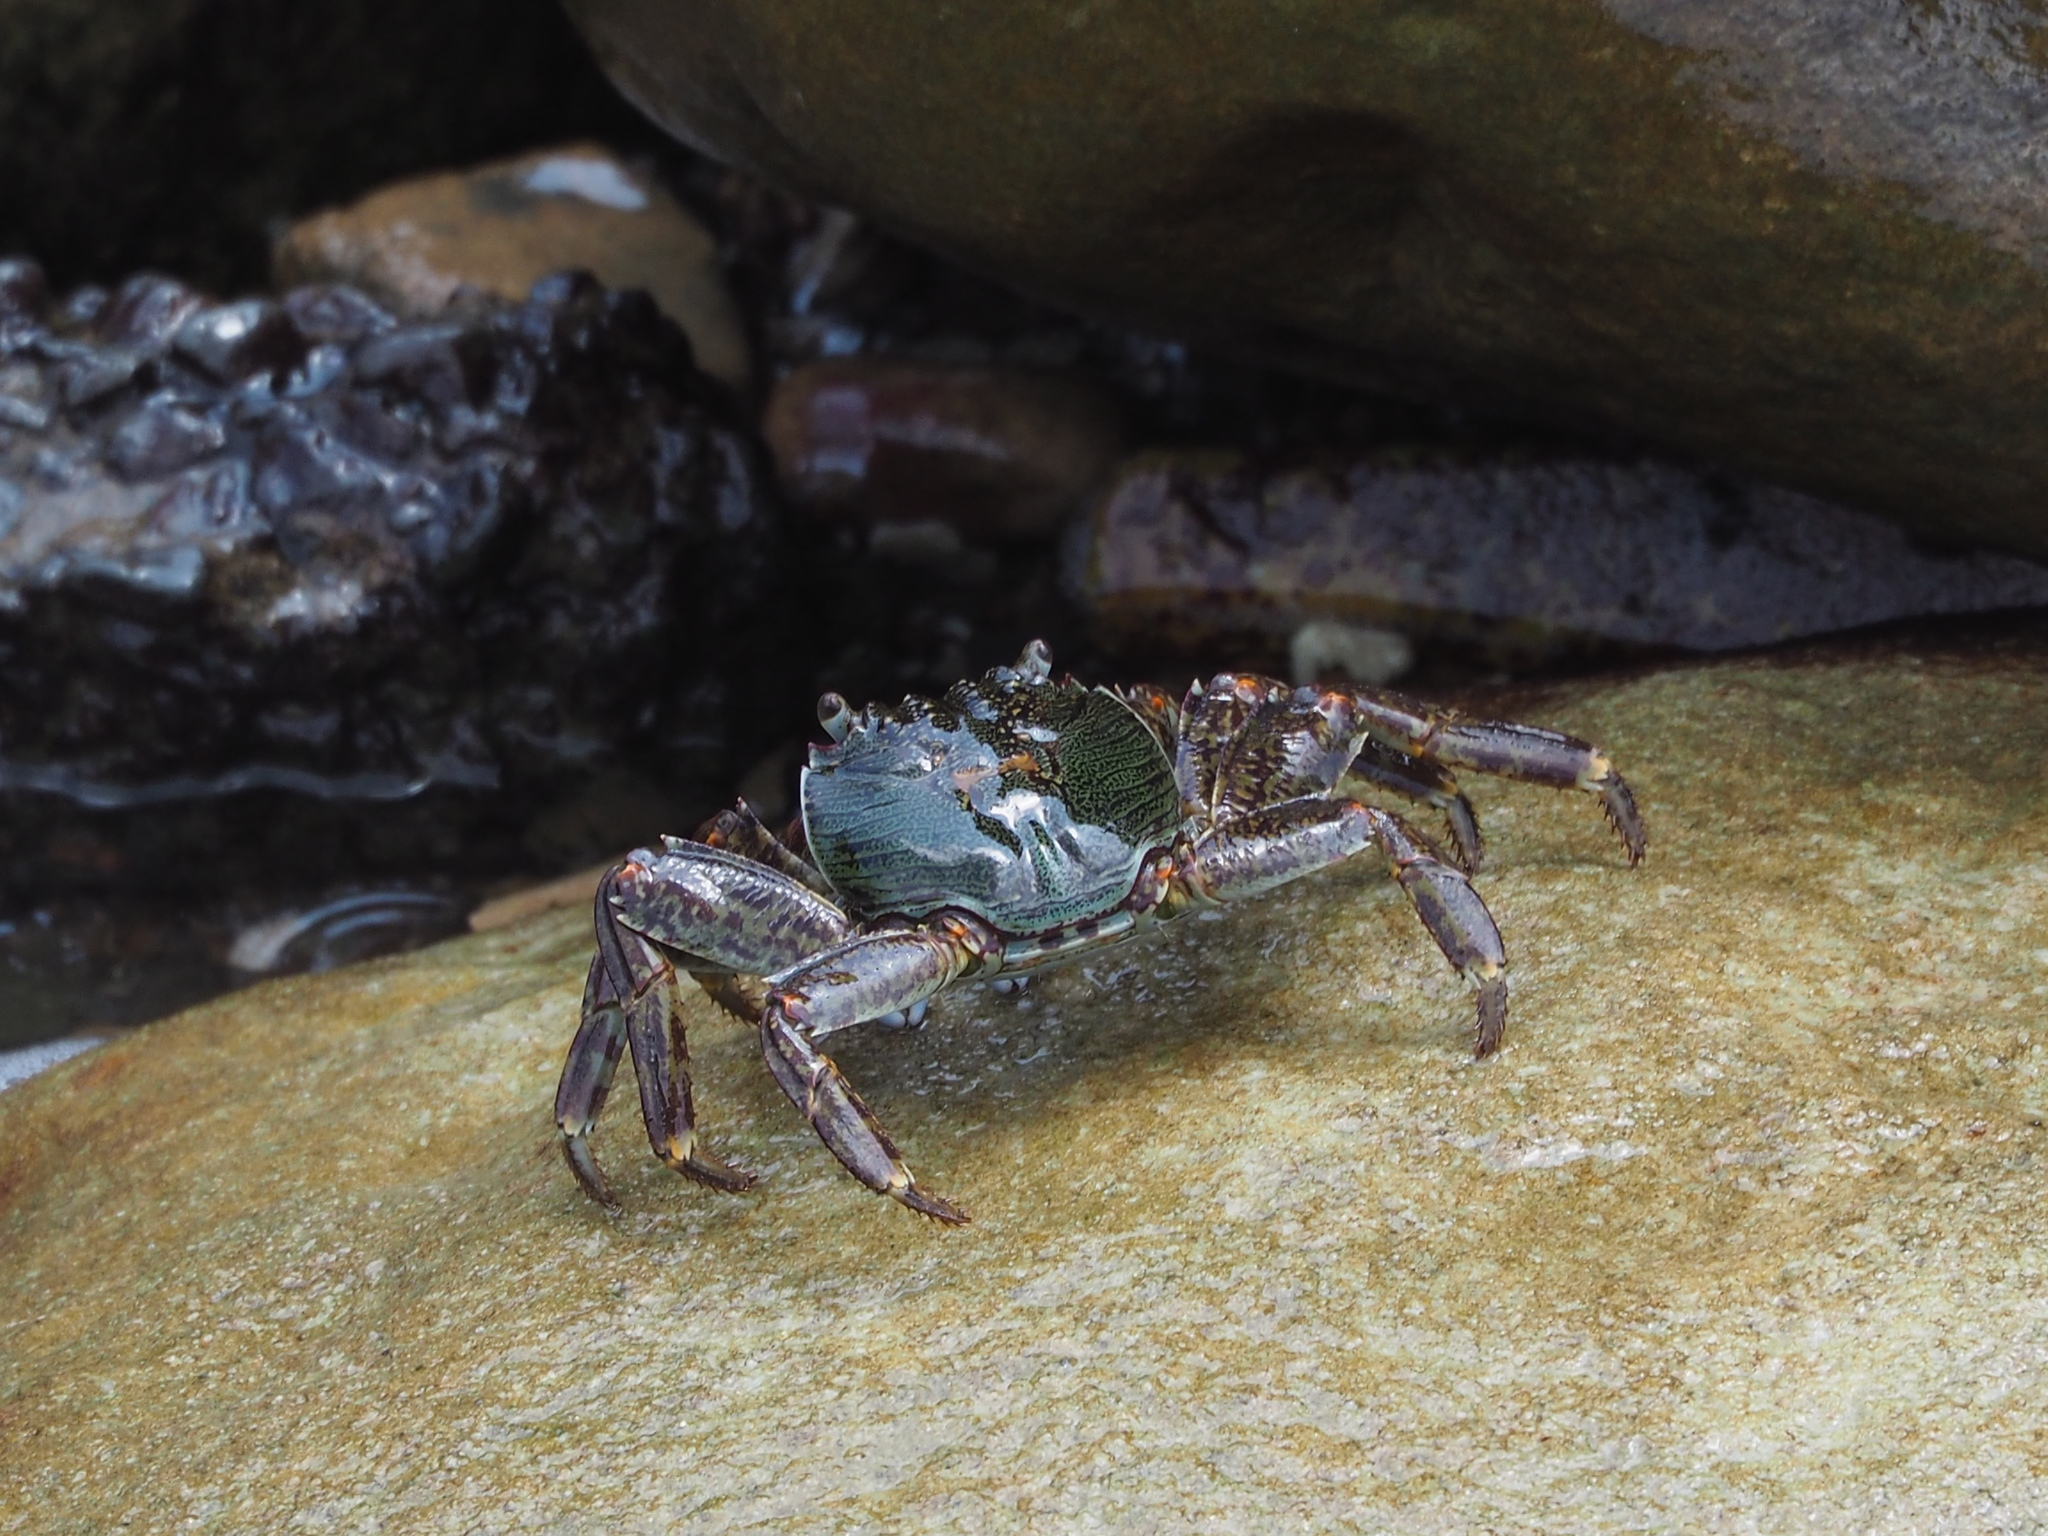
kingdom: Animalia
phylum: Arthropoda
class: Malacostraca
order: Decapoda
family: Grapsidae
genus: Grapsus
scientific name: Grapsus albolineatus
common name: Mottled lightfoot crab
